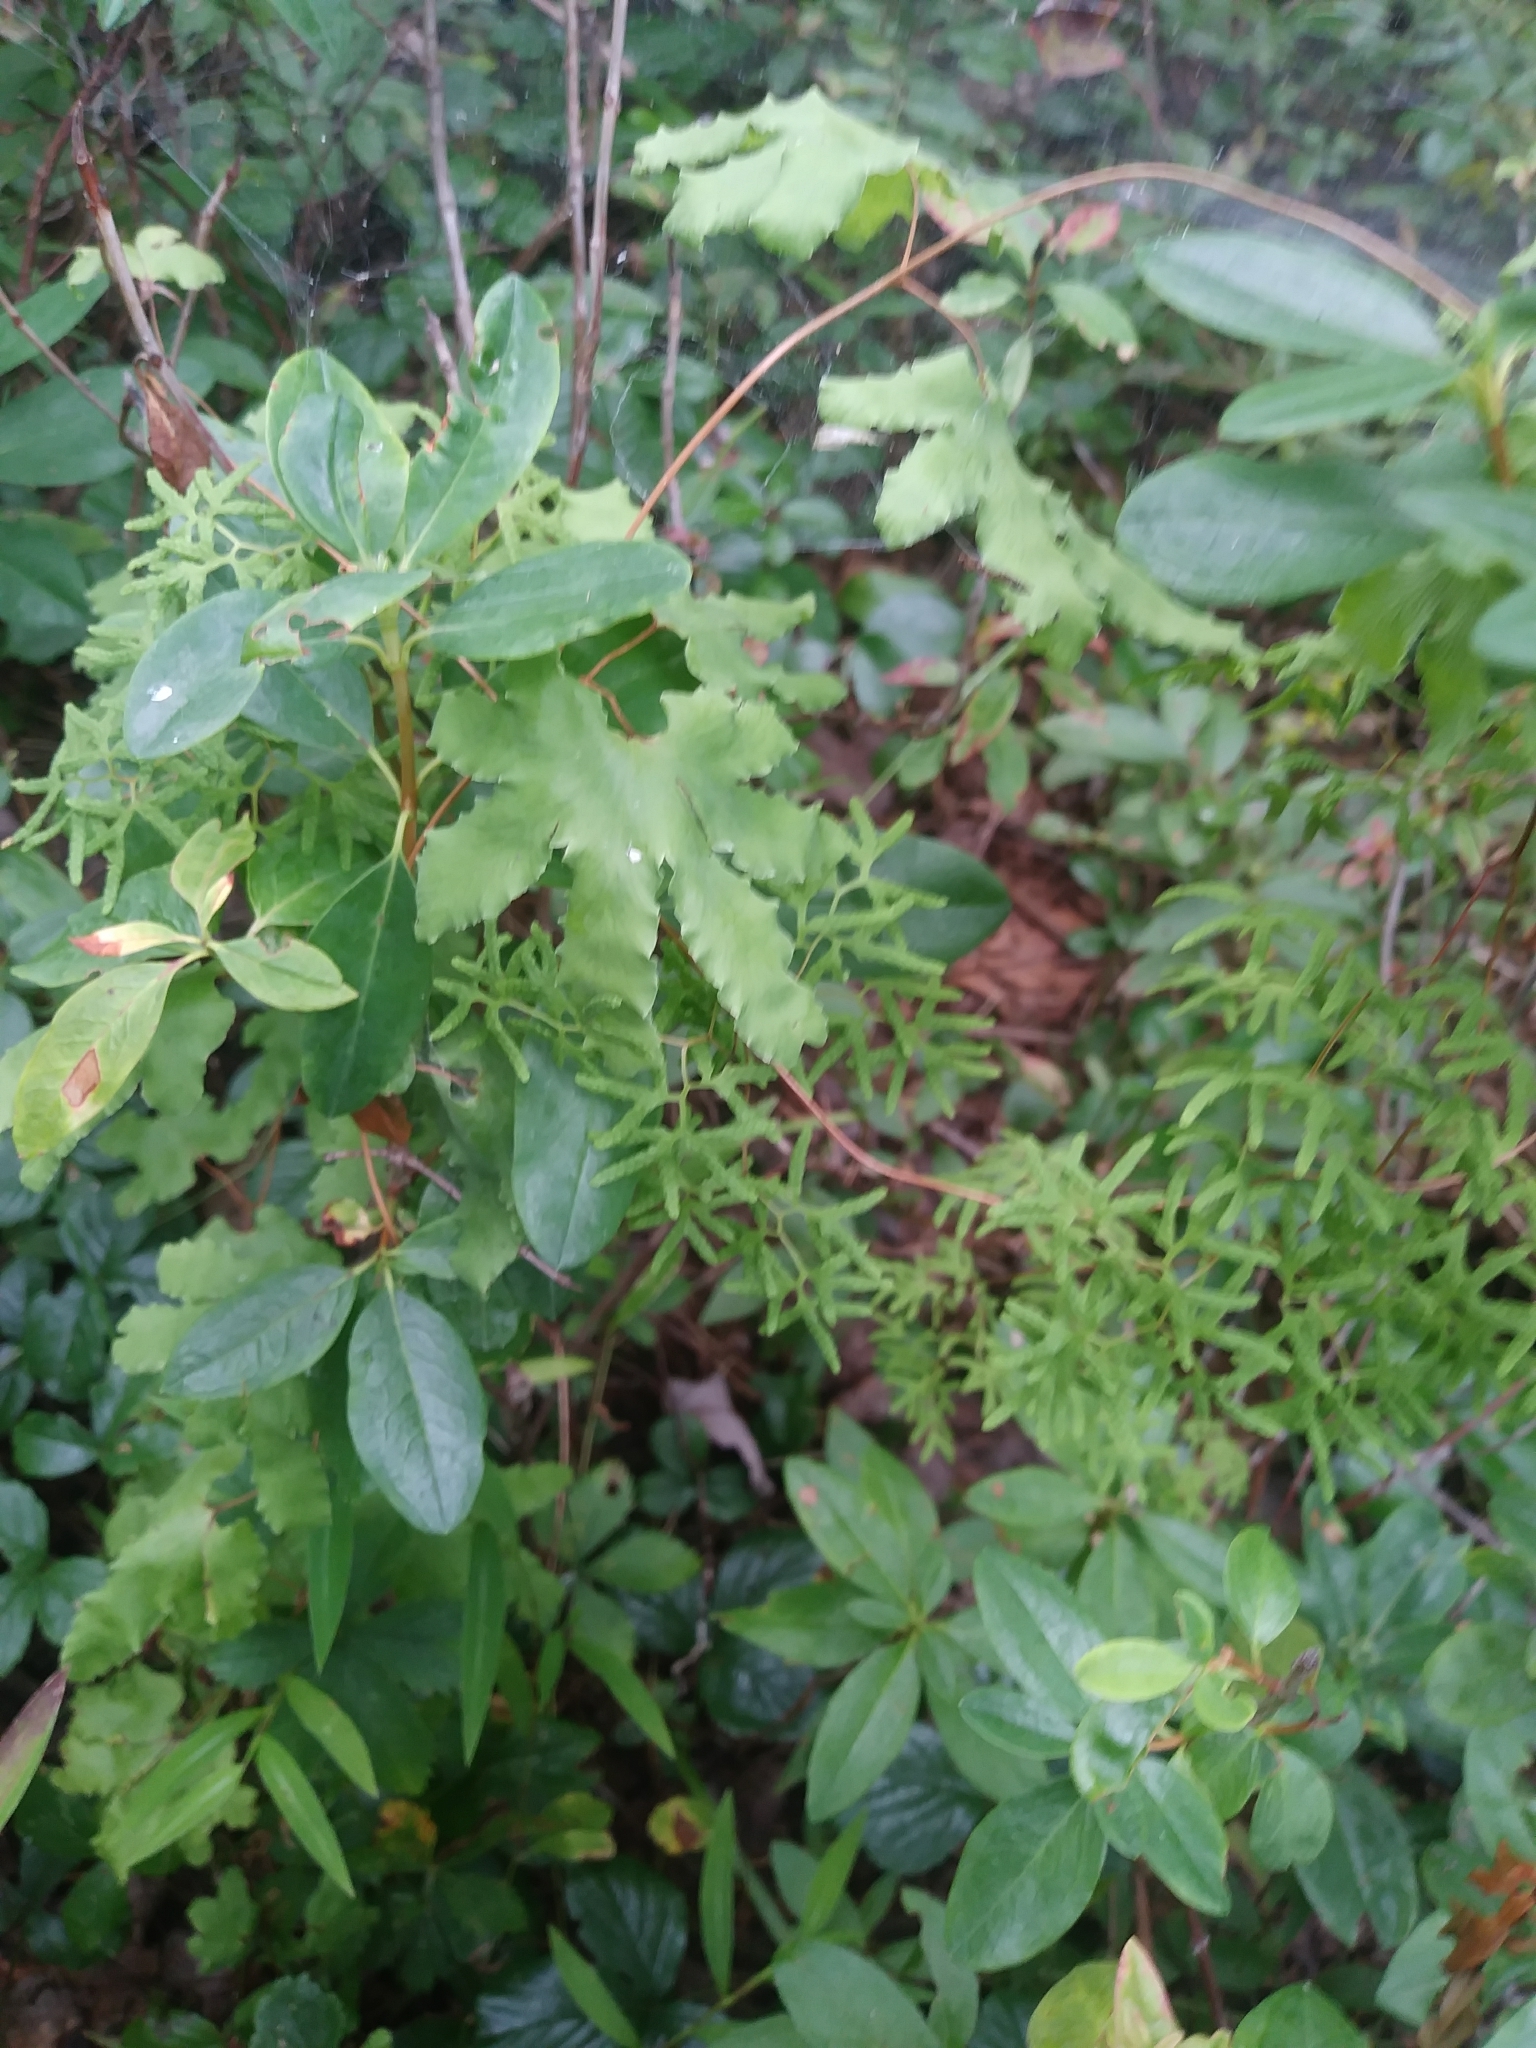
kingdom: Plantae
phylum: Tracheophyta
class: Polypodiopsida
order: Schizaeales
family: Lygodiaceae
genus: Lygodium
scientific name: Lygodium palmatum
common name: American climbing fern
